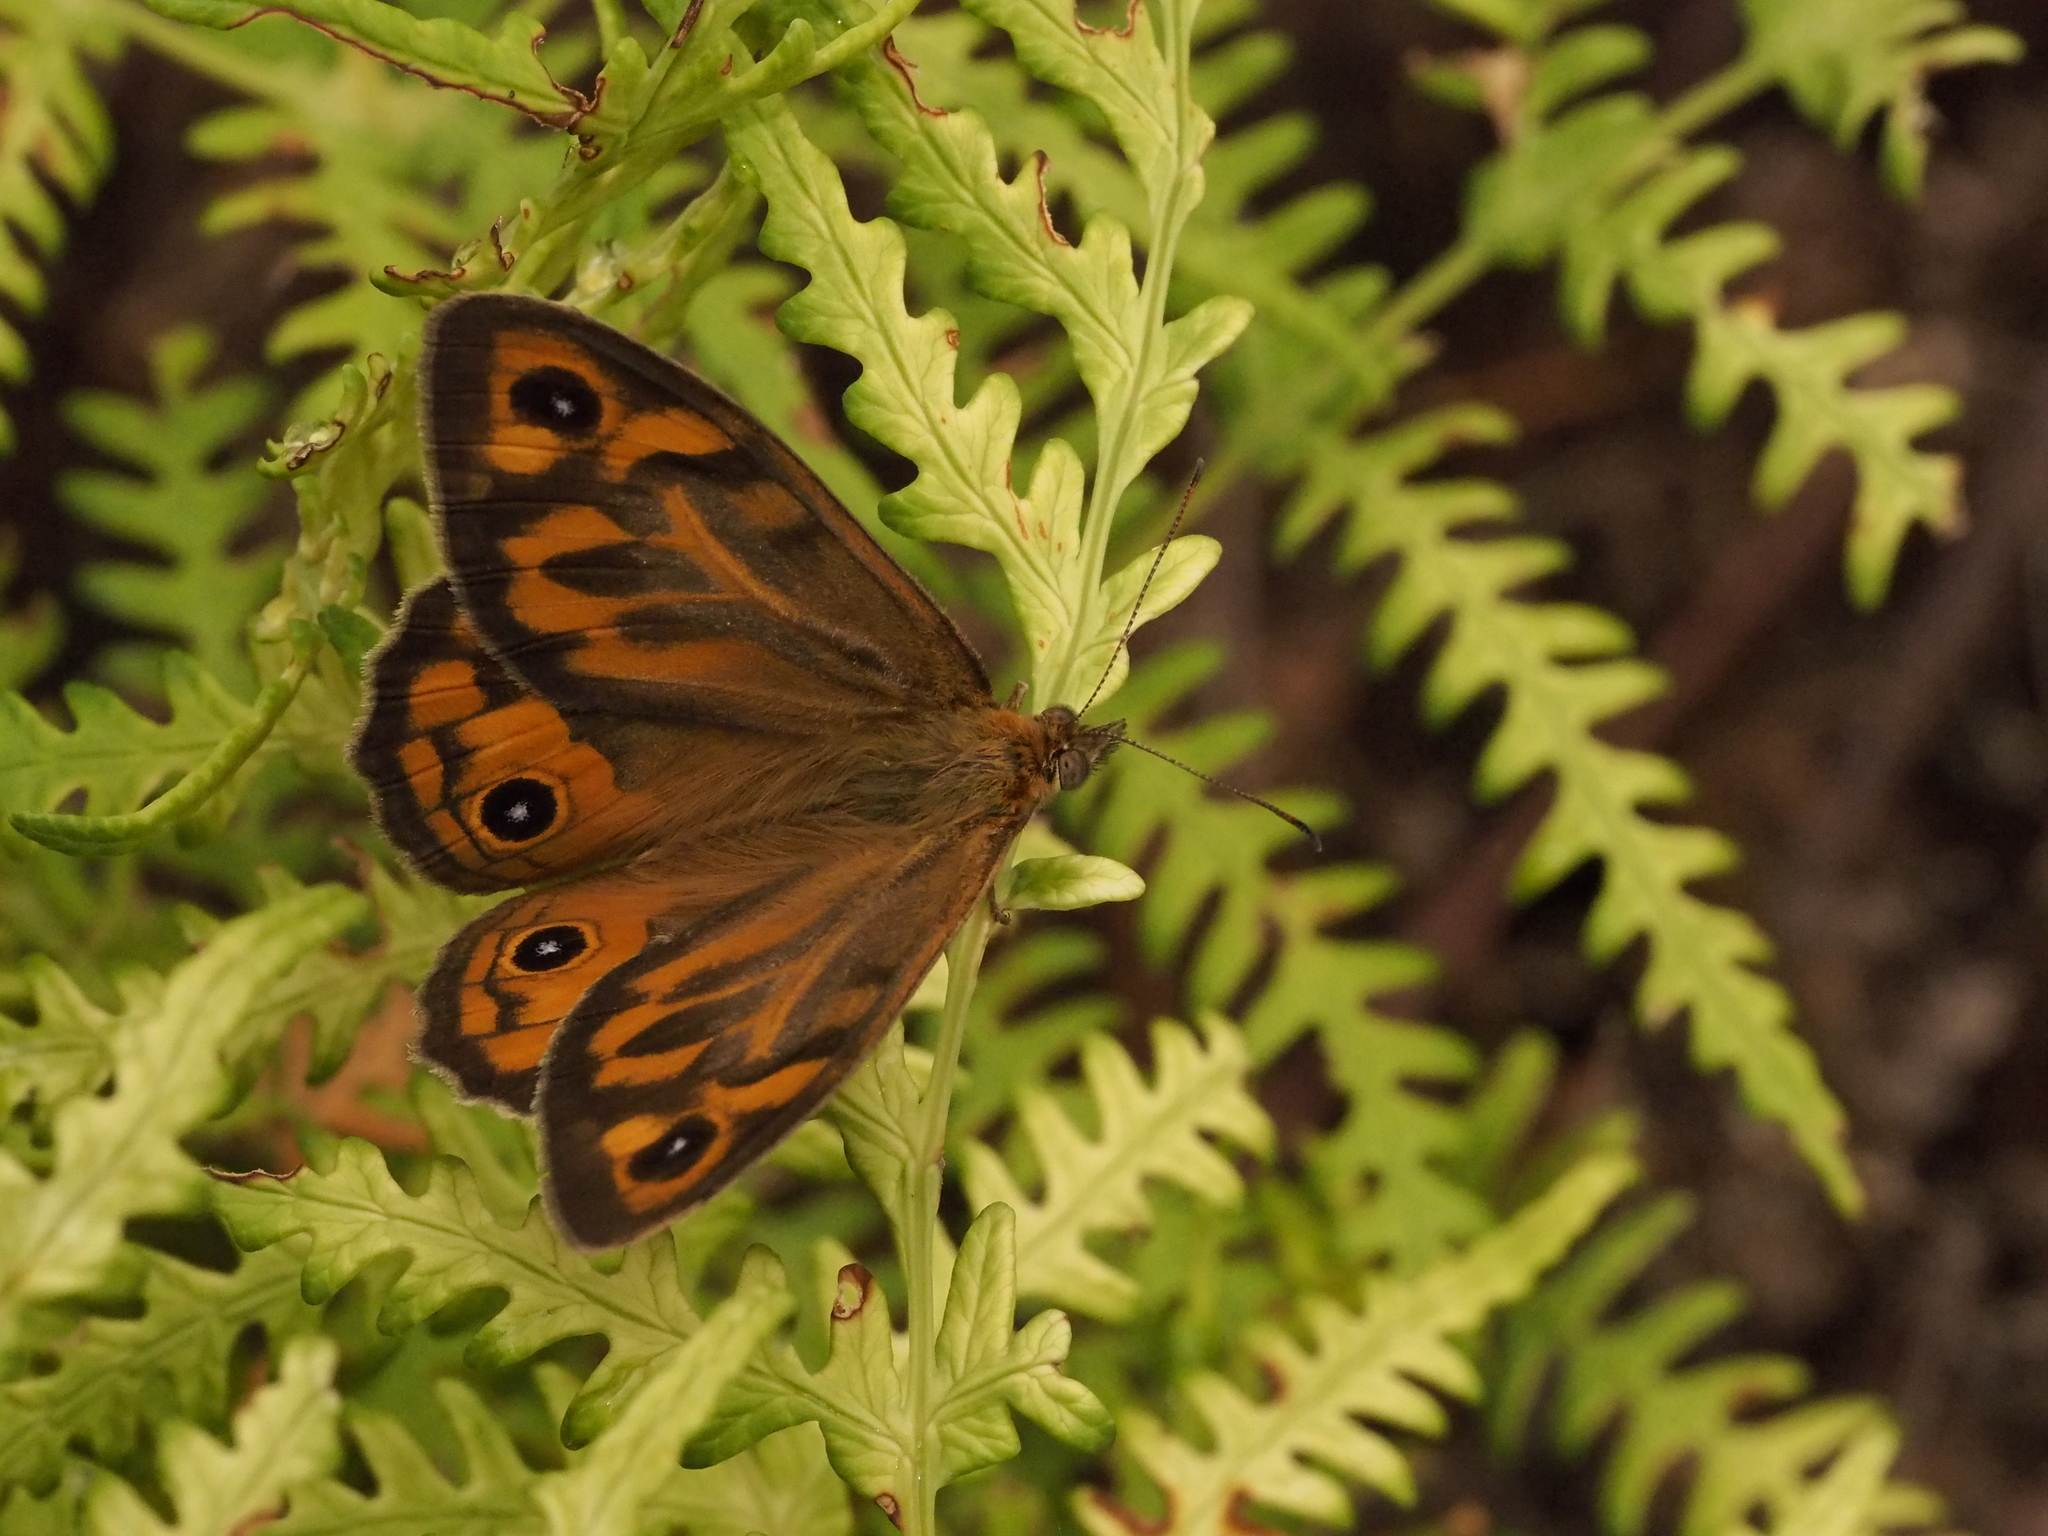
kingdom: Animalia
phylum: Arthropoda
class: Insecta
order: Lepidoptera
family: Nymphalidae
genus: Heteronympha
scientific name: Heteronympha merope
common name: Common brown
